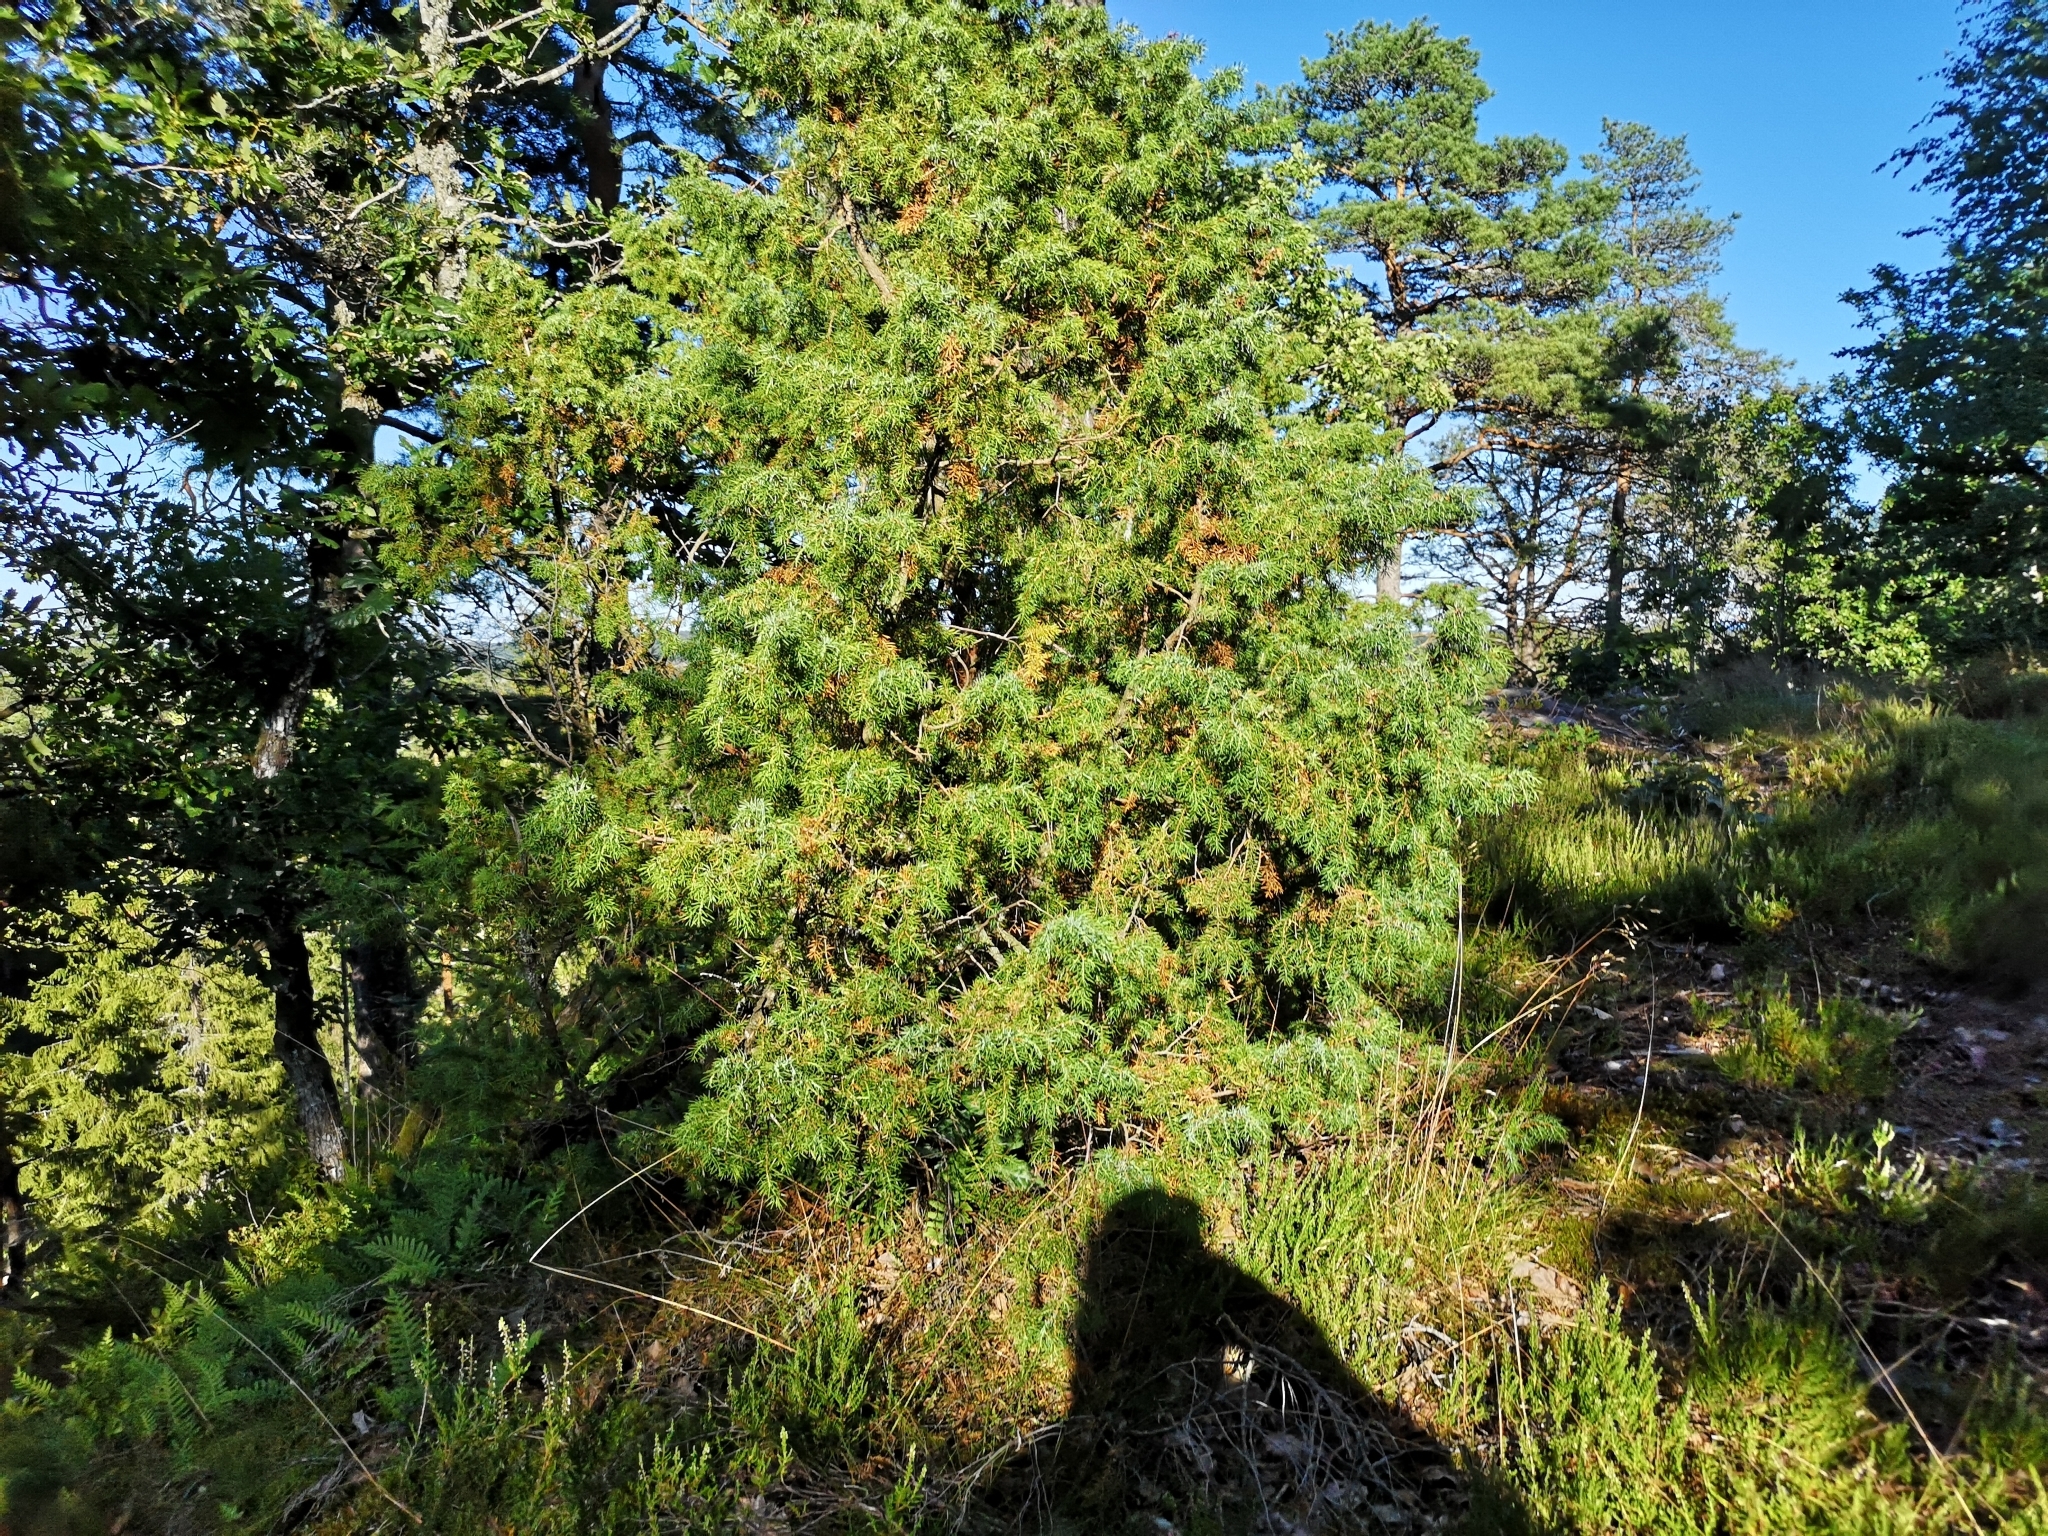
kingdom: Plantae
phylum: Tracheophyta
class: Pinopsida
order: Pinales
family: Cupressaceae
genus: Juniperus
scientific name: Juniperus communis
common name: Common juniper
